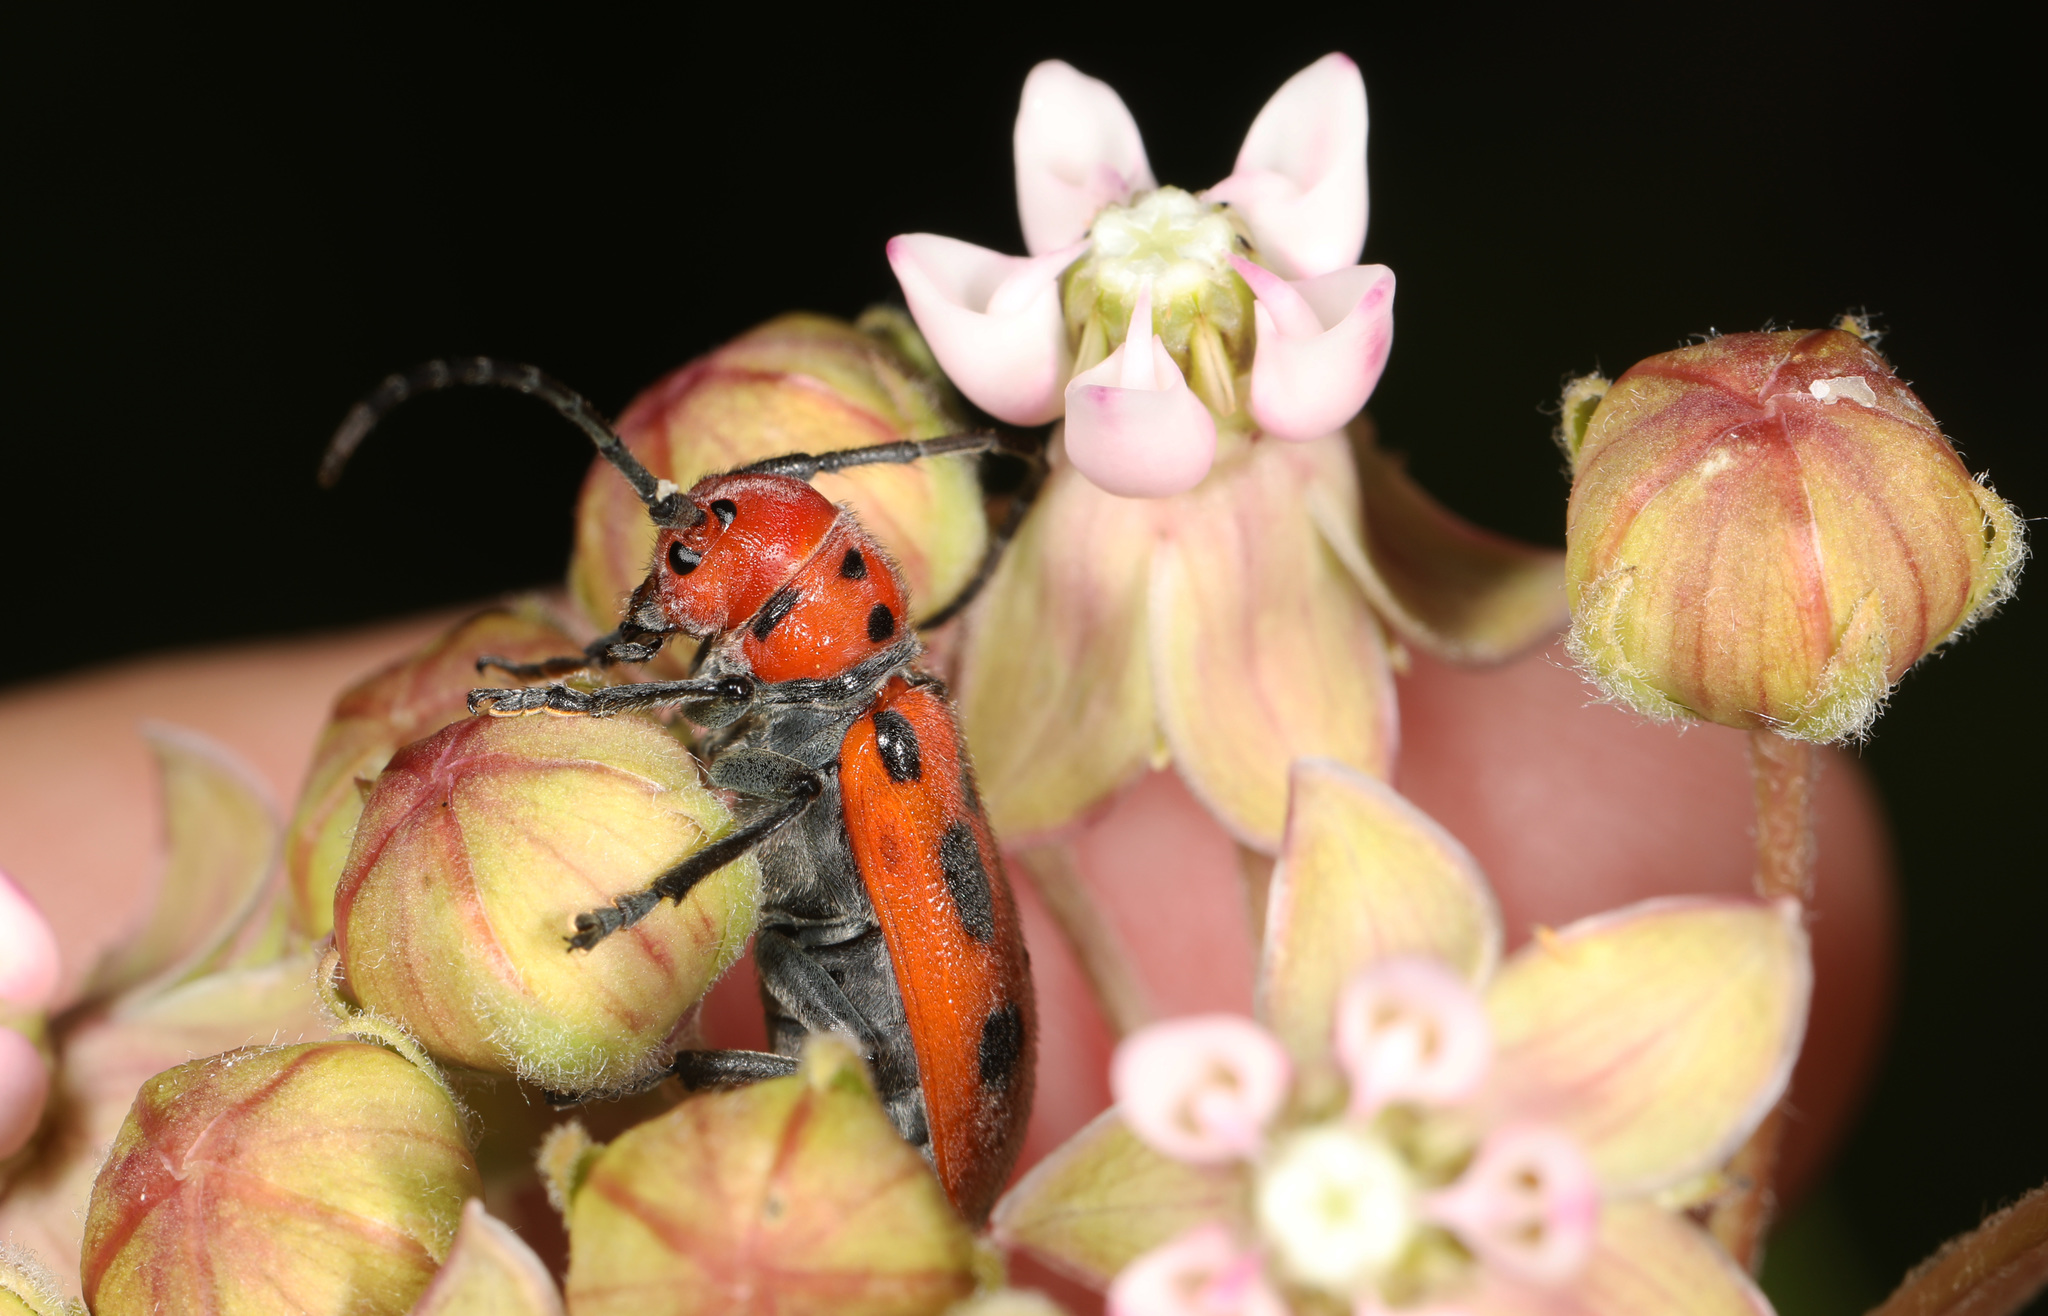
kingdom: Animalia
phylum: Arthropoda
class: Insecta
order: Coleoptera
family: Cerambycidae
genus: Tetraopes
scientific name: Tetraopes tetrophthalmus
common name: Red milkweed beetle
